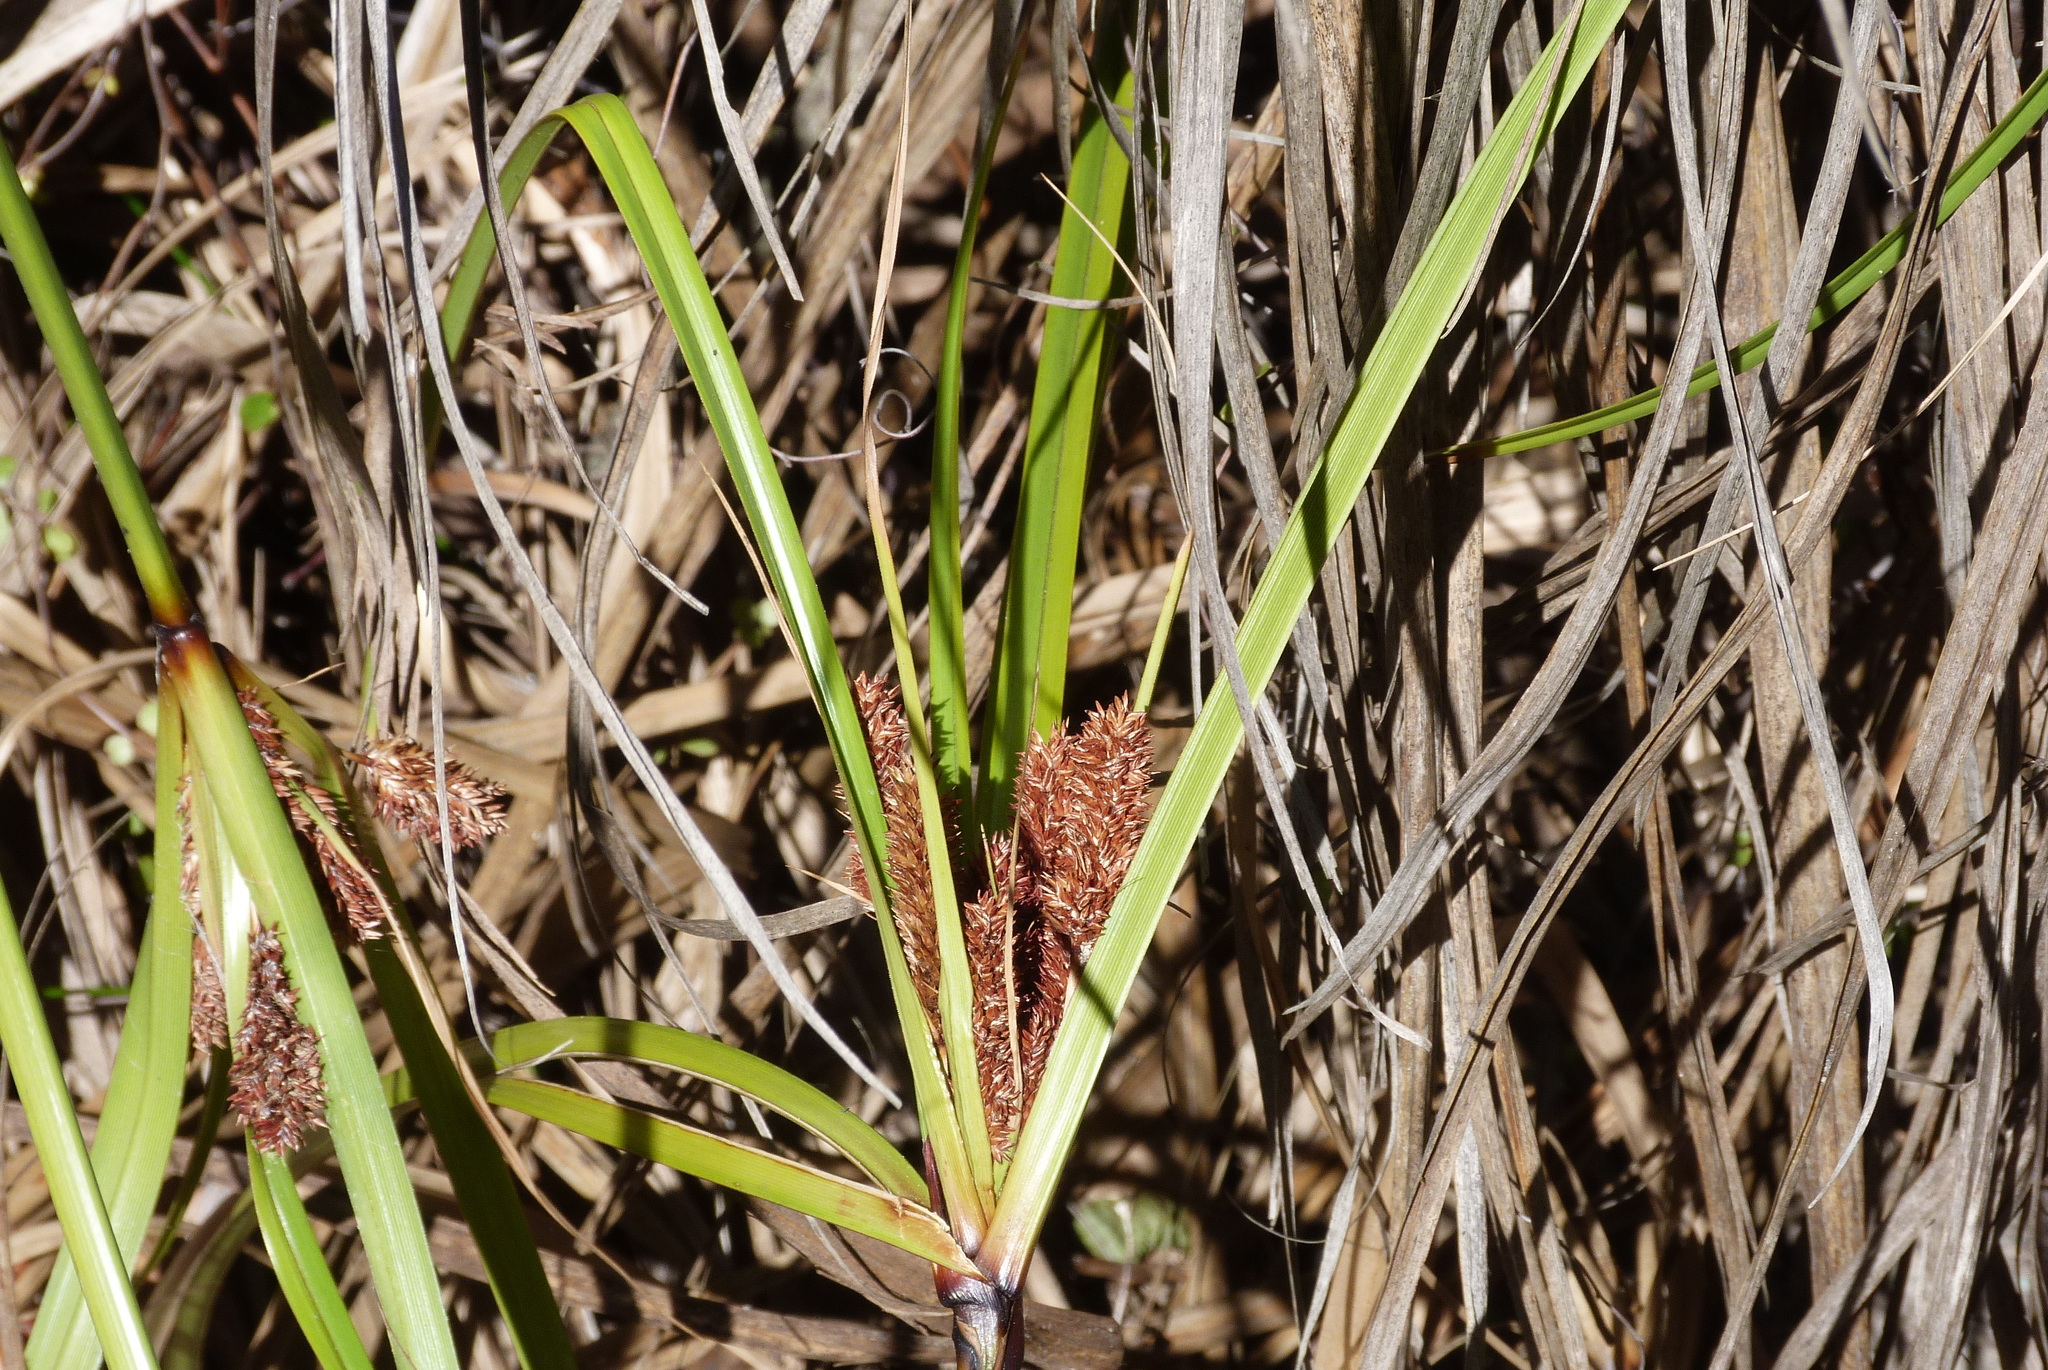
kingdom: Plantae
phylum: Tracheophyta
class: Liliopsida
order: Poales
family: Cyperaceae
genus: Cyperus
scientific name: Cyperus ustulatus
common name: Giant umbrella-sedge
